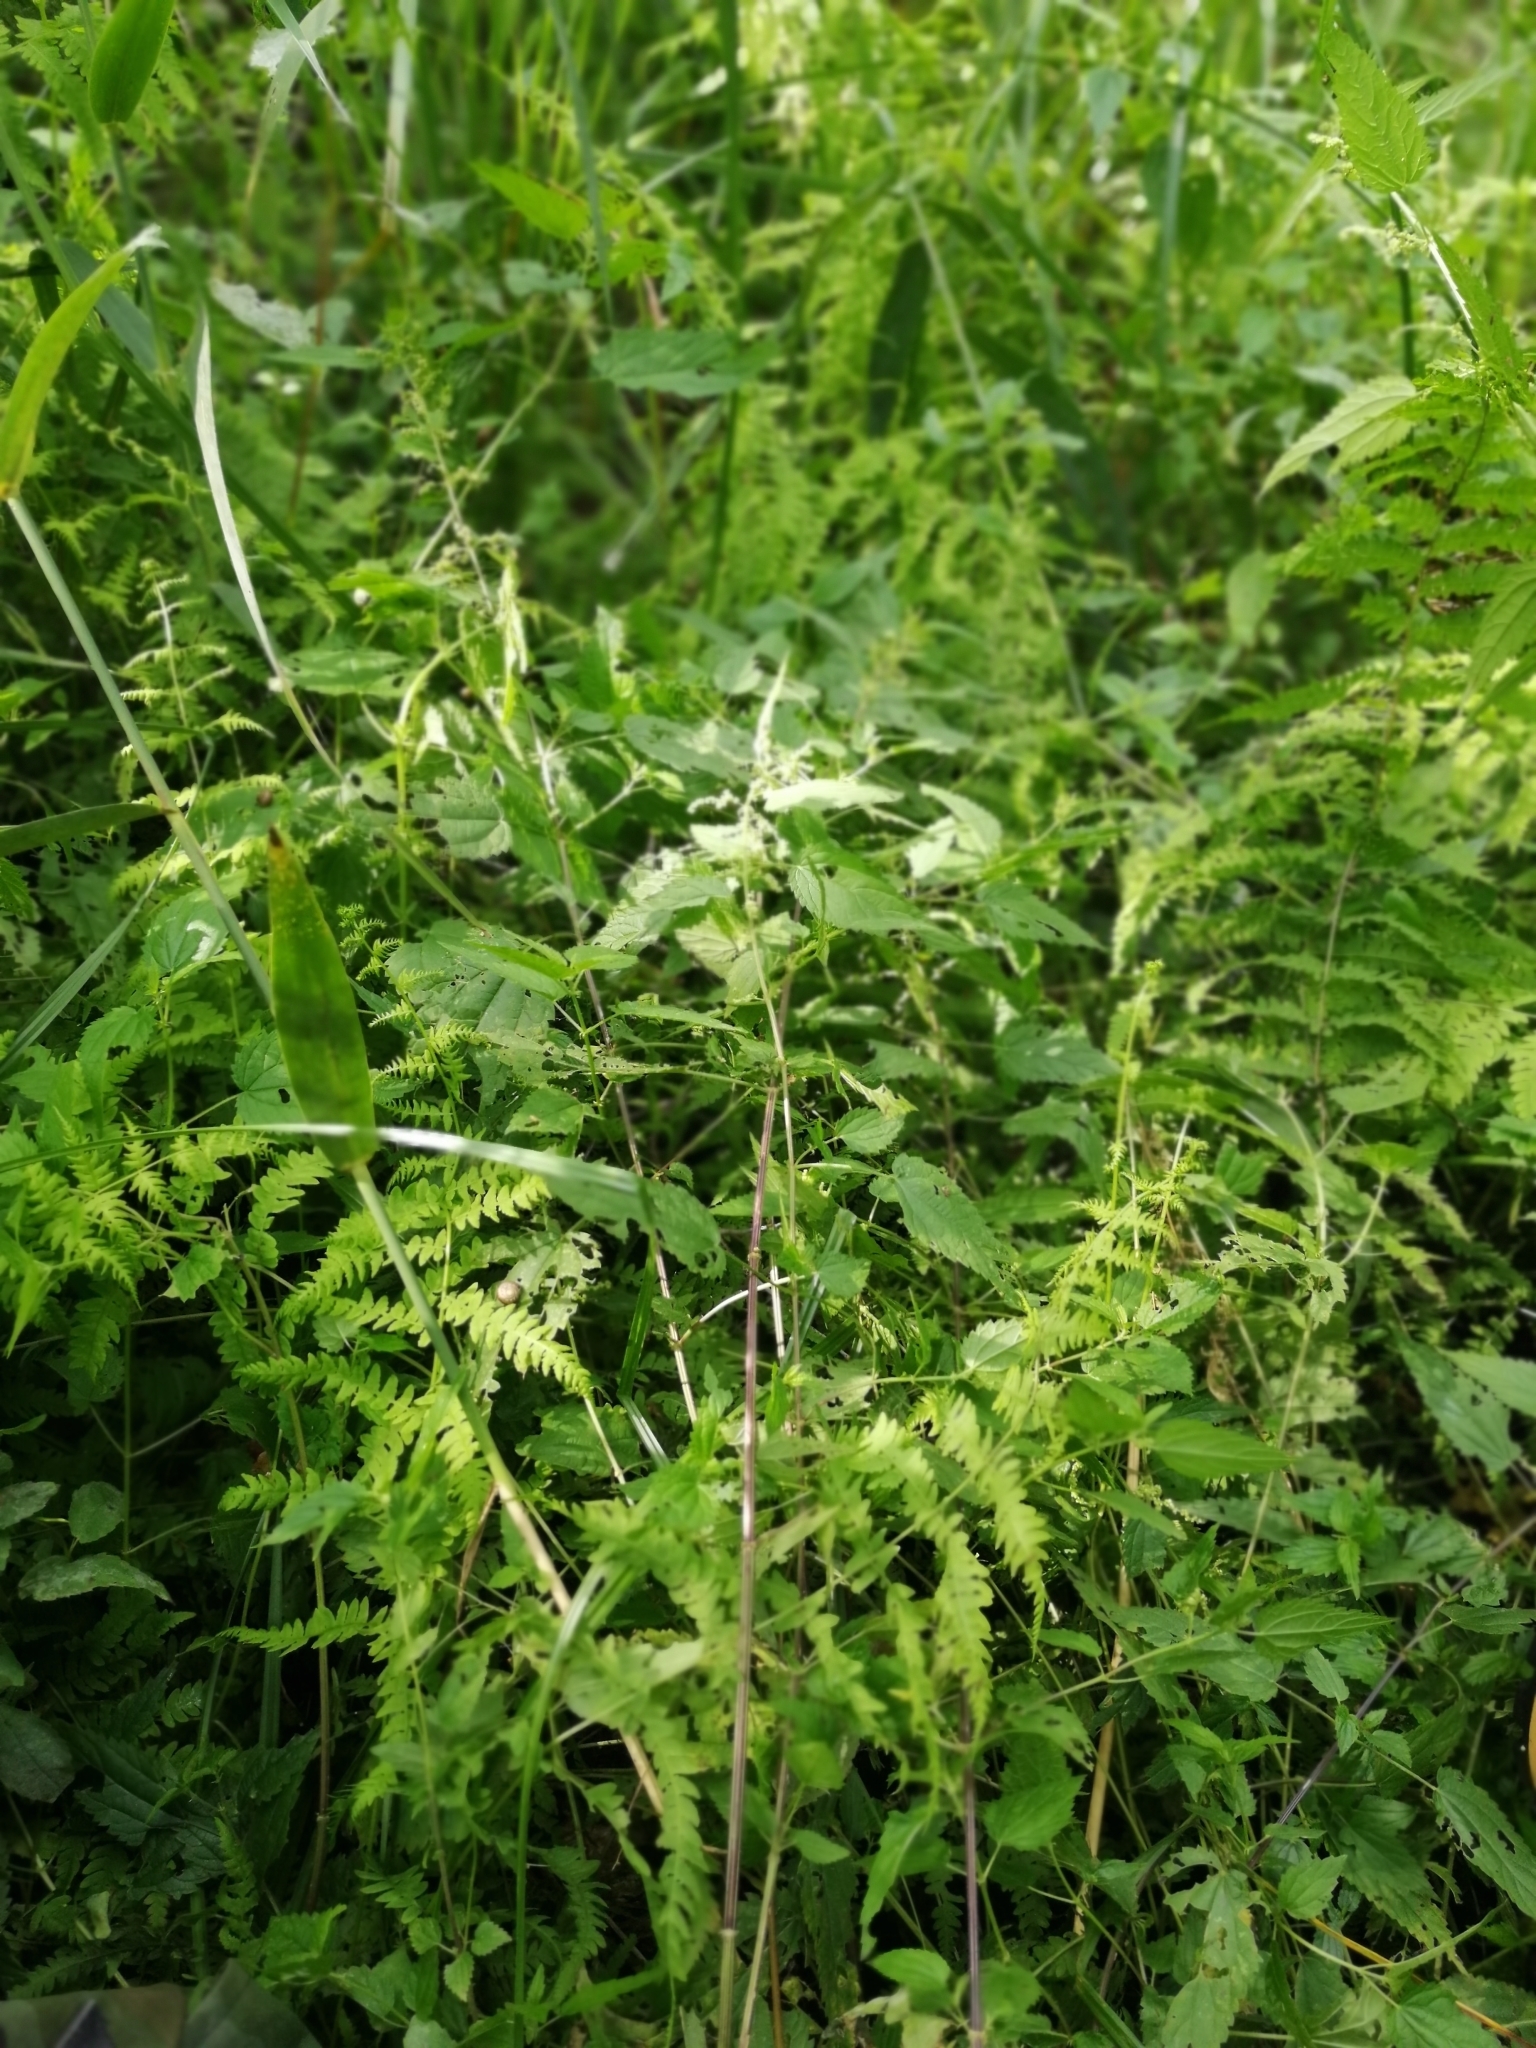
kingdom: Plantae
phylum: Tracheophyta
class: Polypodiopsida
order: Polypodiales
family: Thelypteridaceae
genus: Thelypteris
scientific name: Thelypteris palustris
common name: Marsh fern
